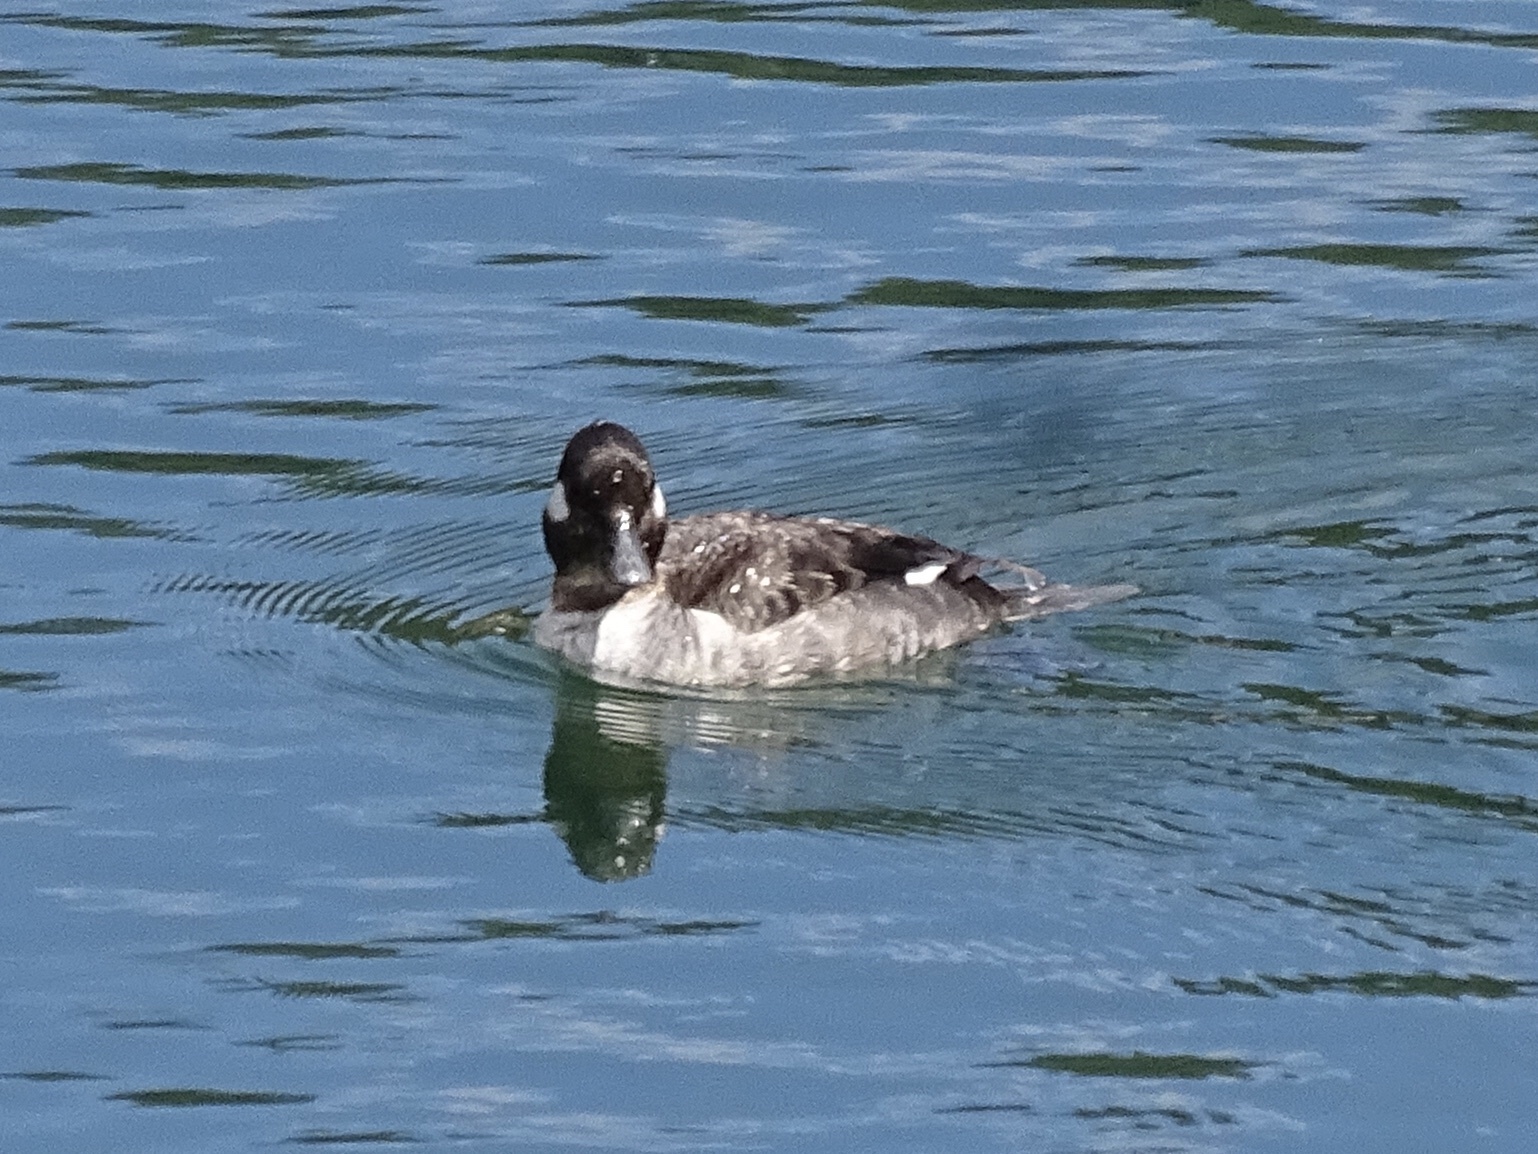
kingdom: Animalia
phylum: Chordata
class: Aves
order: Anseriformes
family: Anatidae
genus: Bucephala
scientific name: Bucephala albeola
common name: Bufflehead
